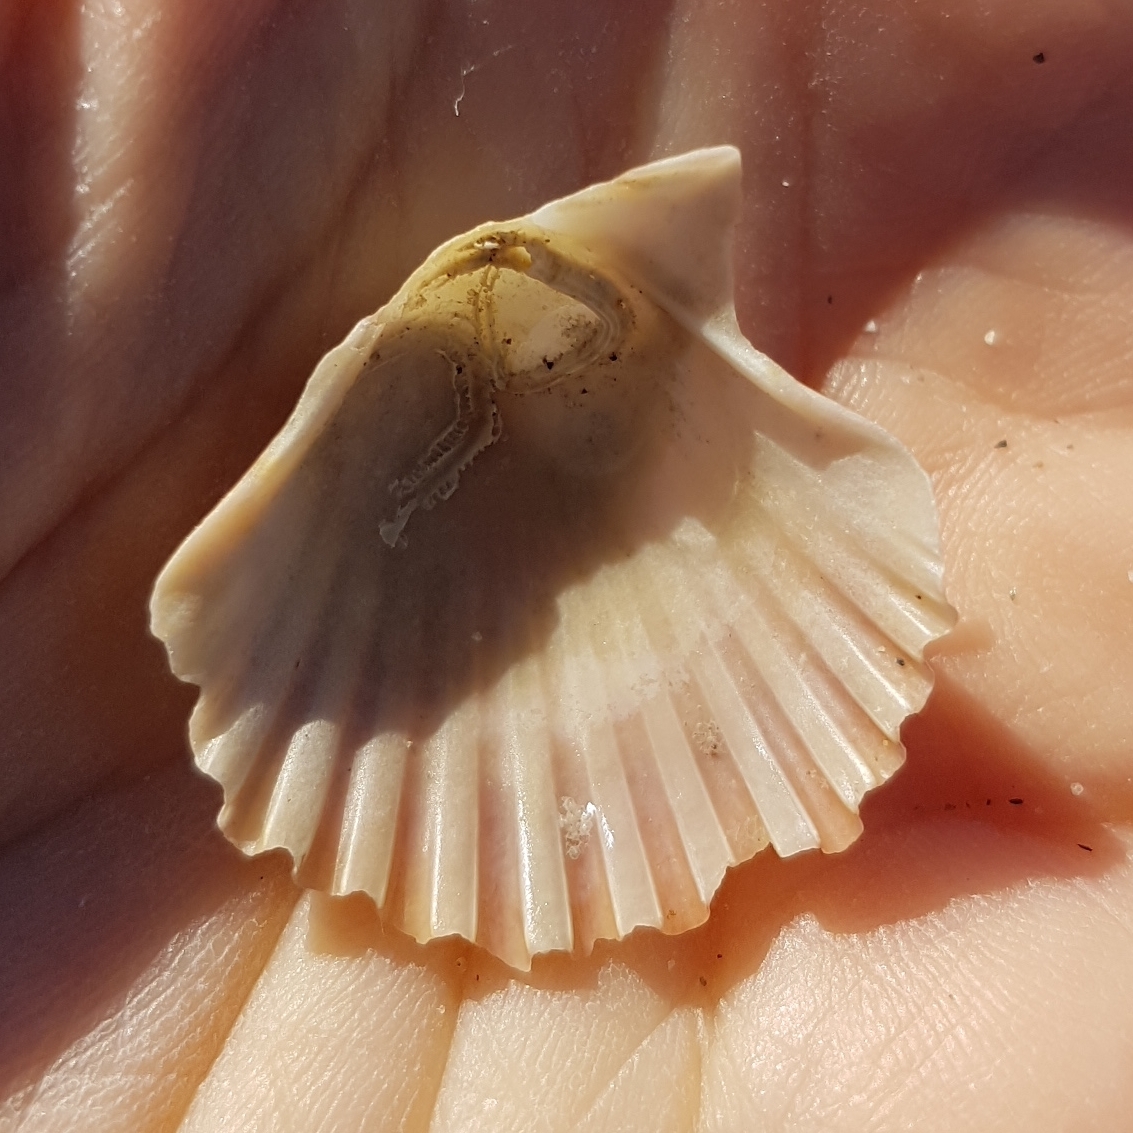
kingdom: Animalia
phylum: Mollusca
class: Bivalvia
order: Pectinida
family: Pectinidae
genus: Pecten
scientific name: Pecten jacobaeus
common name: St.james's scallop
